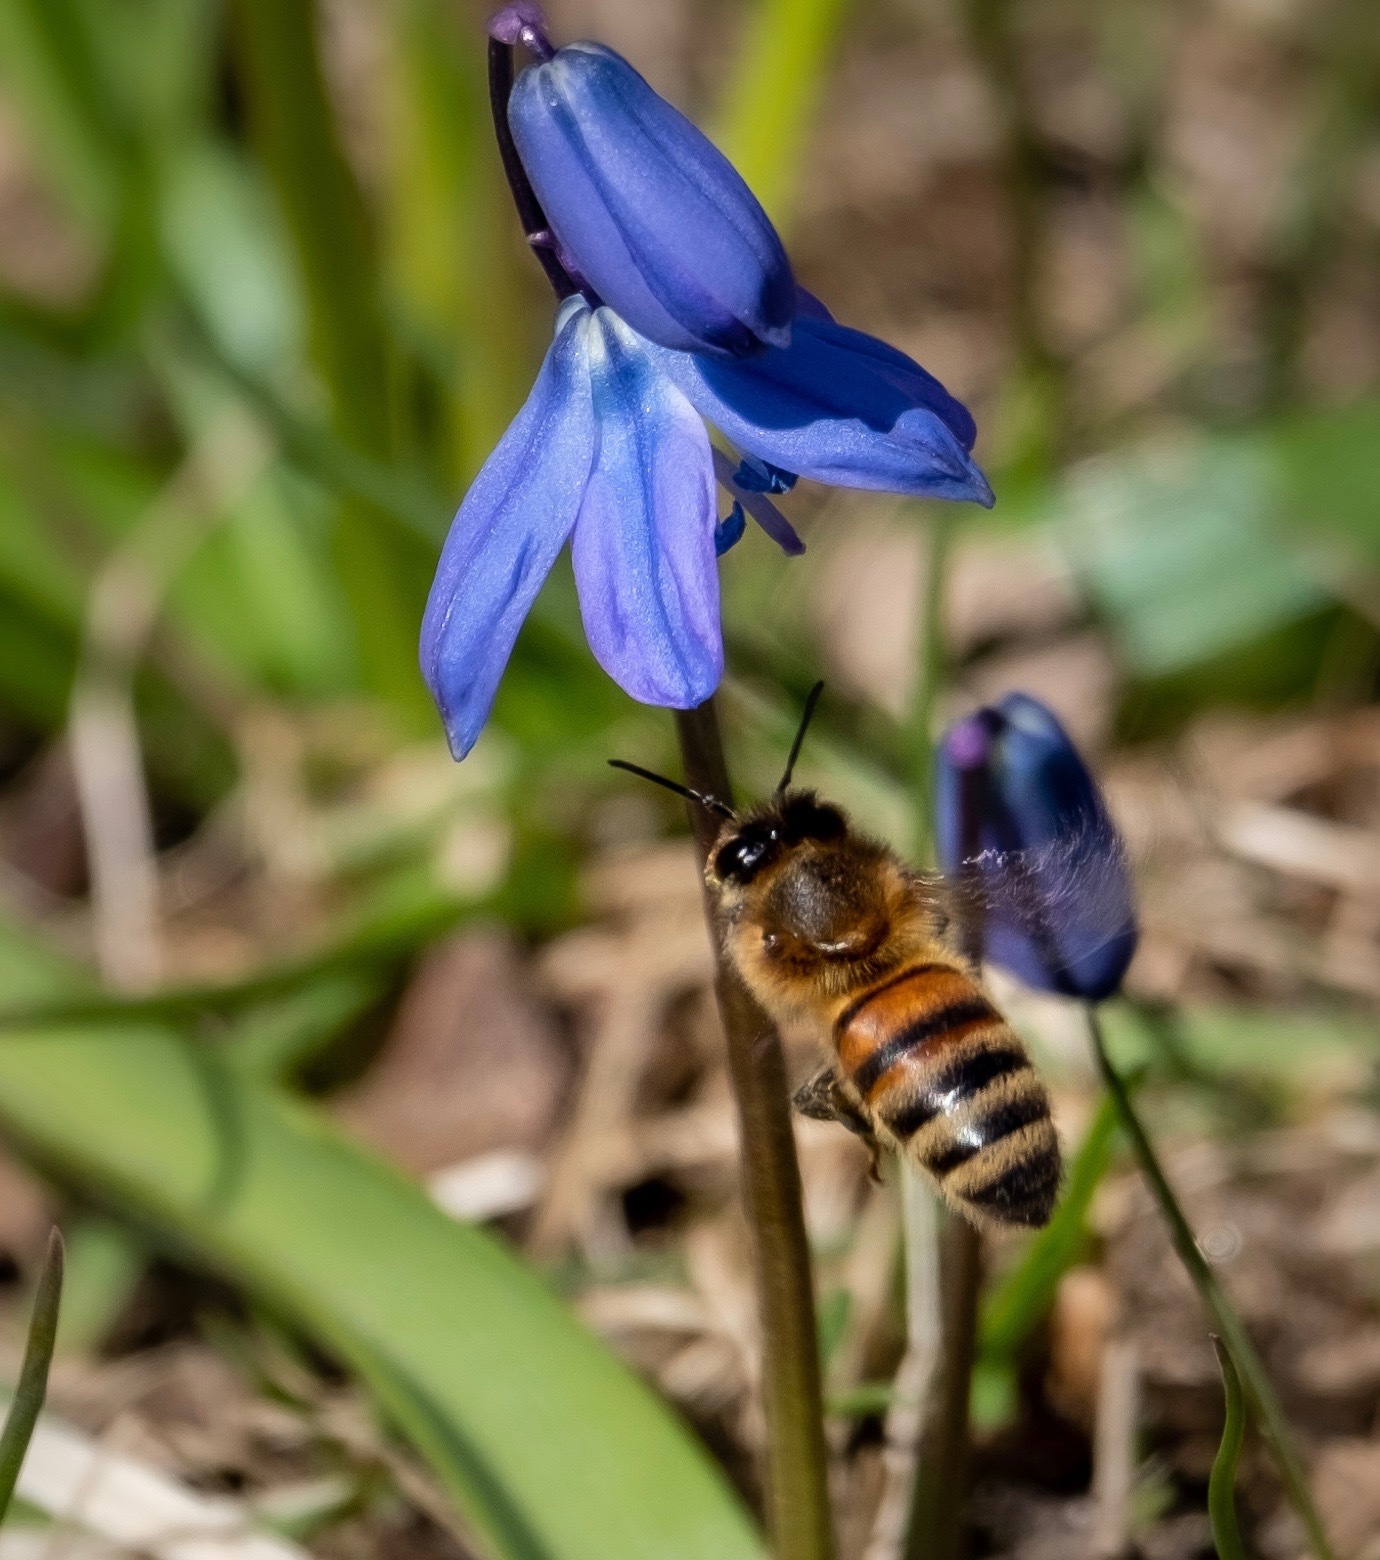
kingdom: Animalia
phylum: Arthropoda
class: Insecta
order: Hymenoptera
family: Apidae
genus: Apis
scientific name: Apis mellifera
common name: Honey bee
